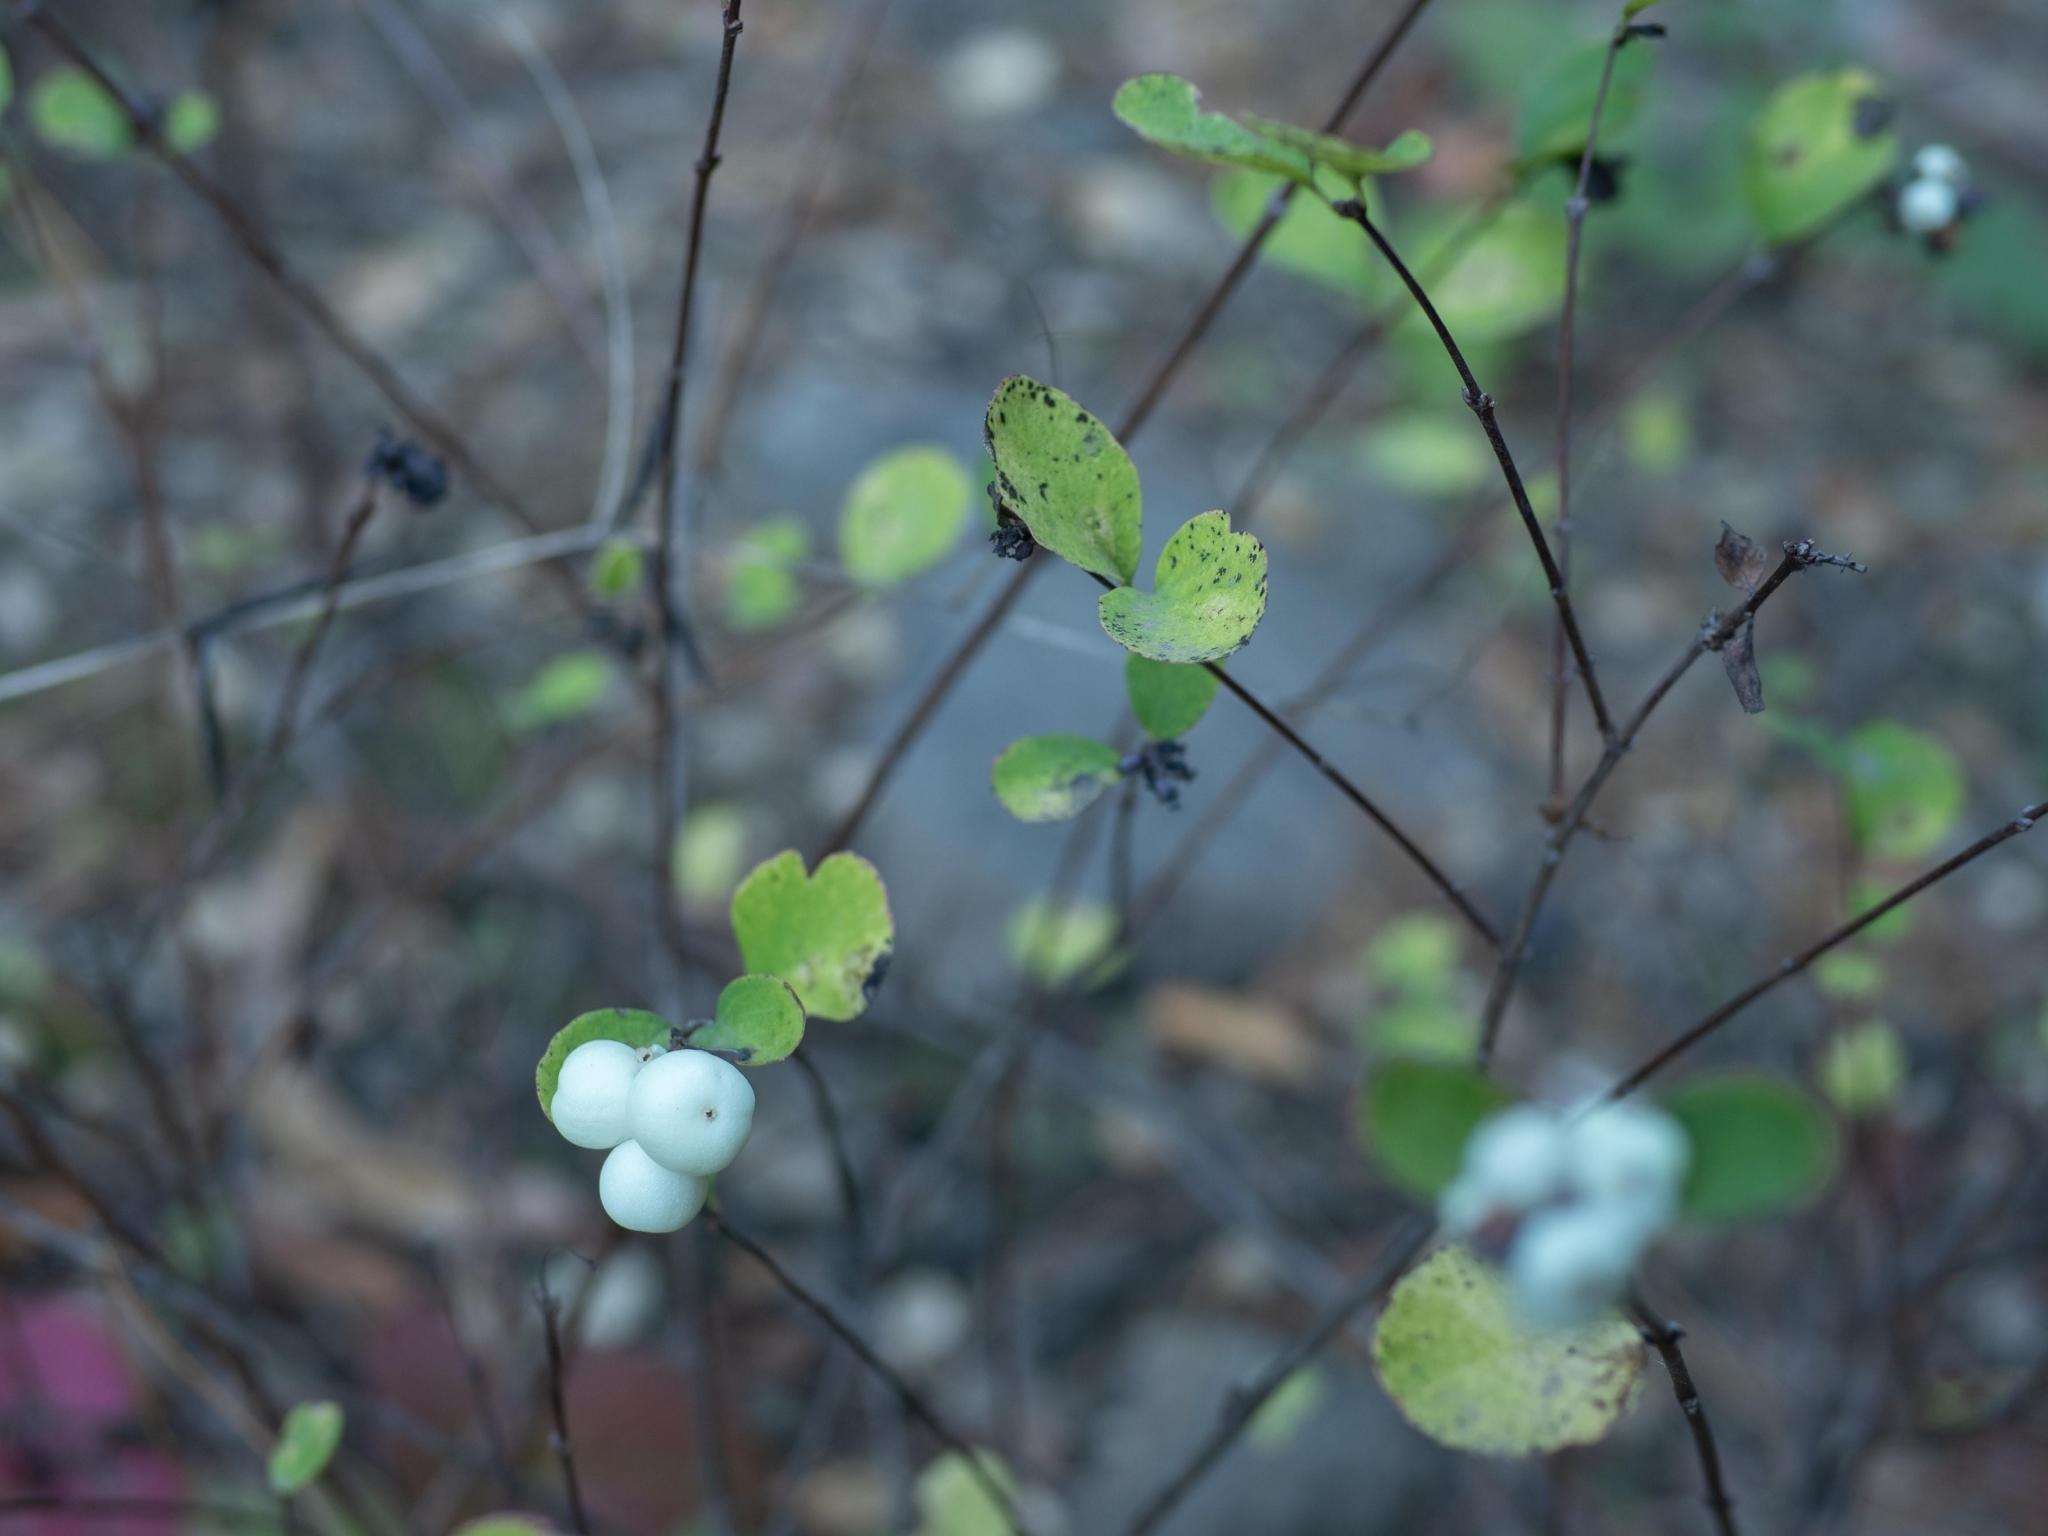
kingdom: Plantae
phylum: Tracheophyta
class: Magnoliopsida
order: Dipsacales
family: Caprifoliaceae
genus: Symphoricarpos
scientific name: Symphoricarpos albus
